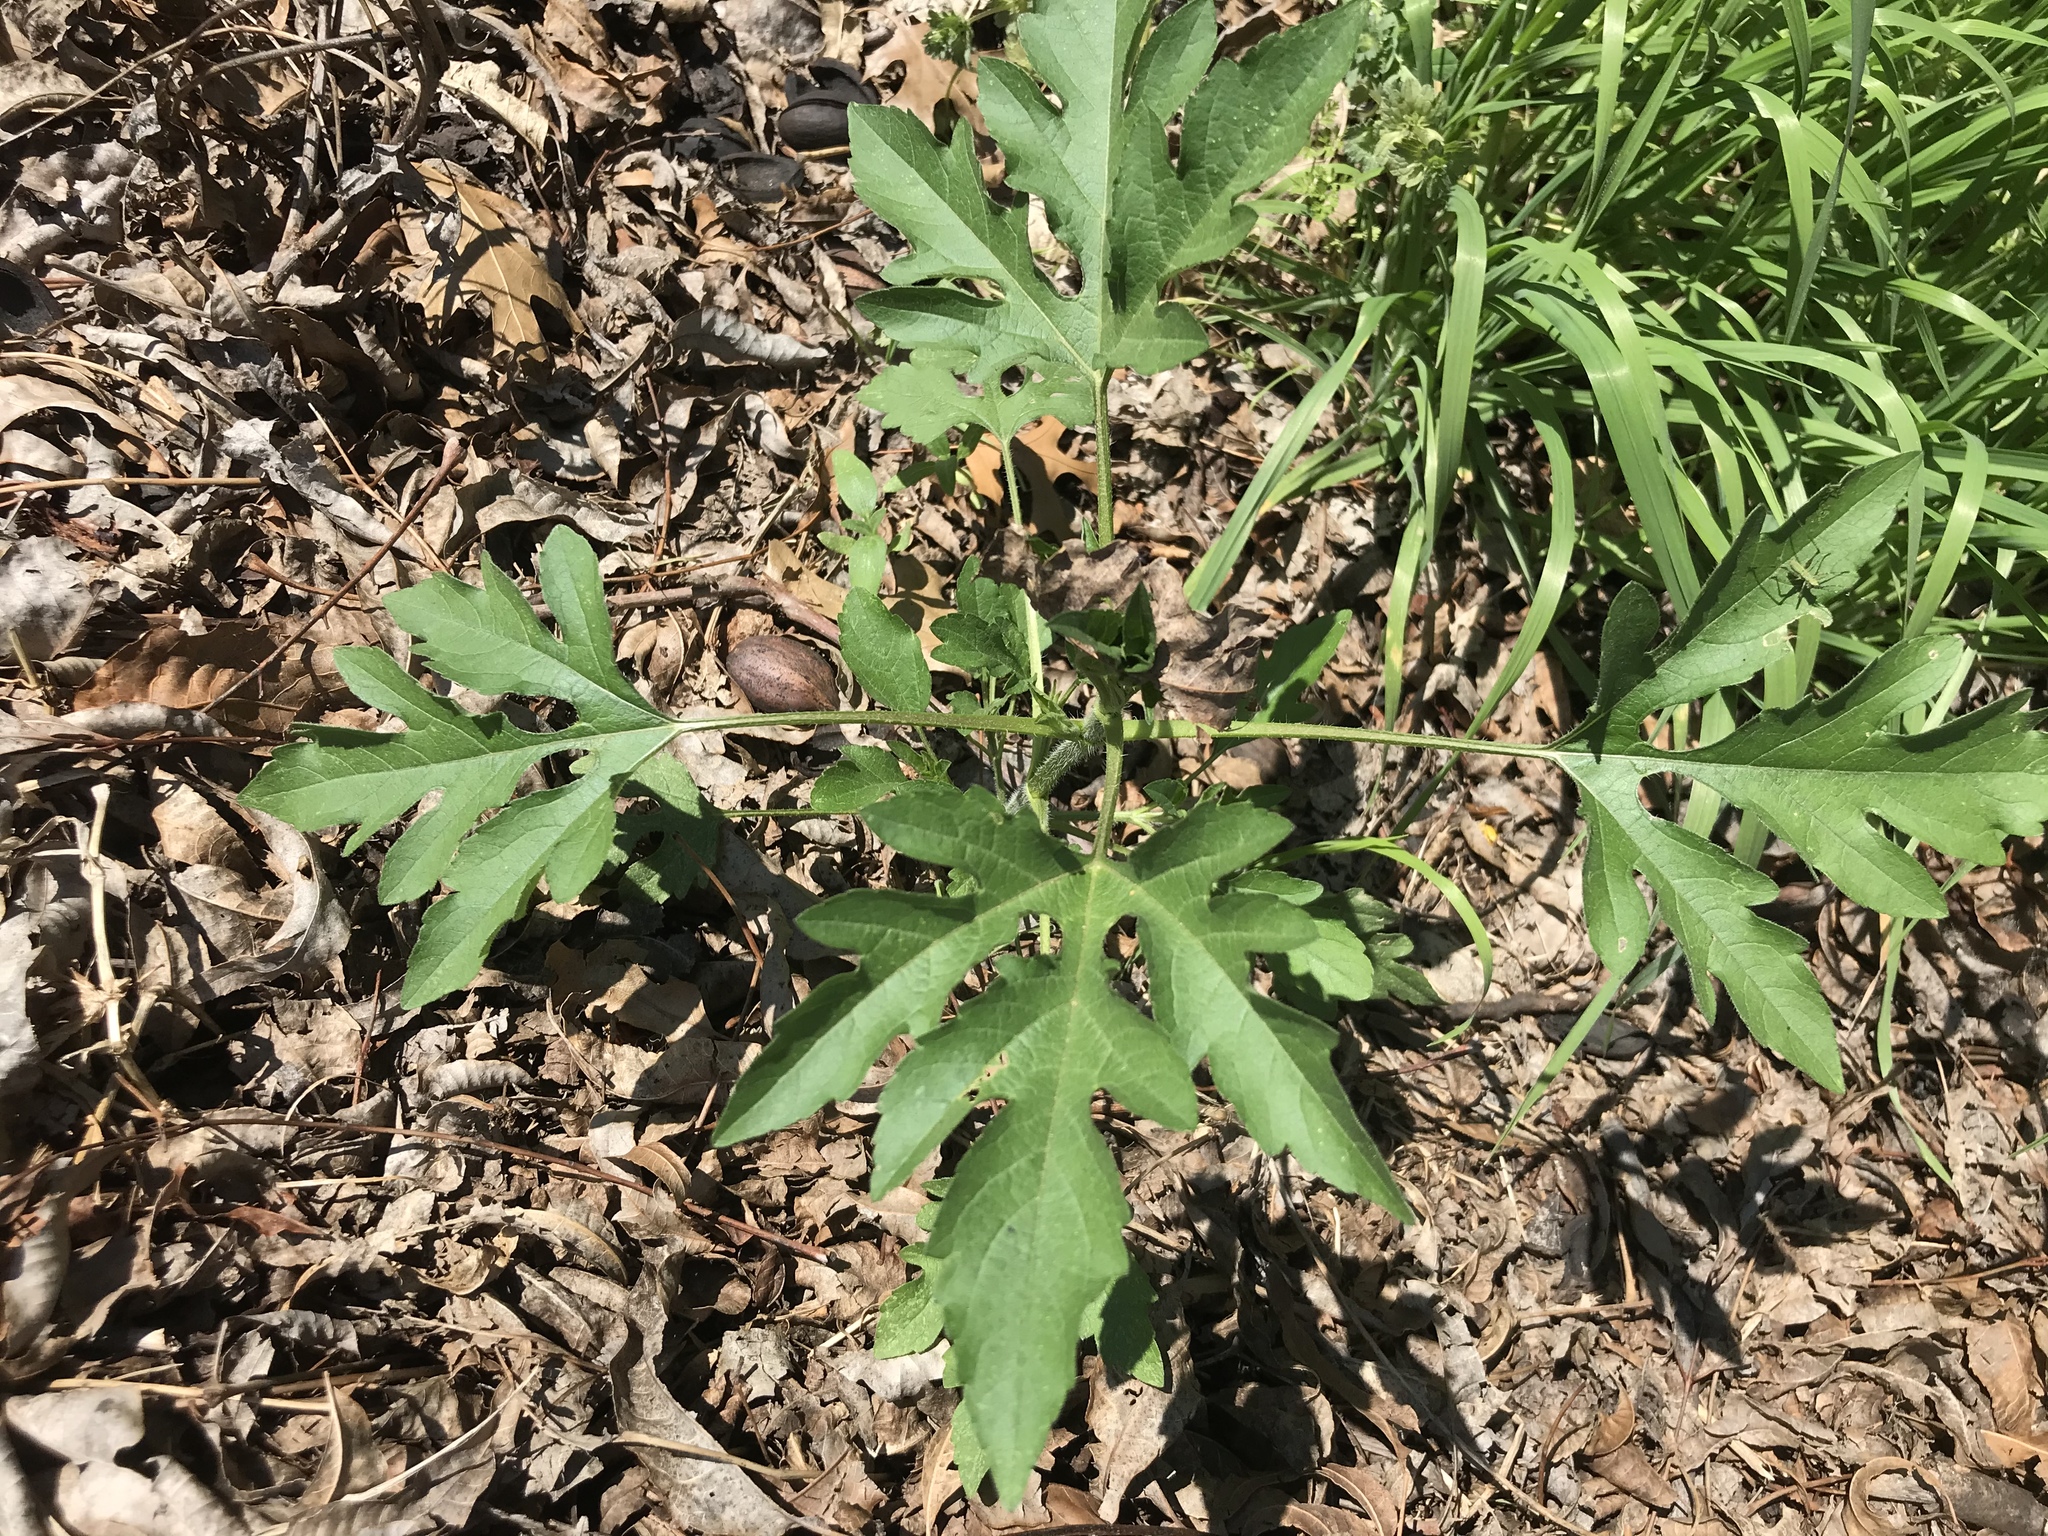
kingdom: Plantae
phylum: Tracheophyta
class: Magnoliopsida
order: Asterales
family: Asteraceae
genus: Ambrosia
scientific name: Ambrosia trifida
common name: Giant ragweed
